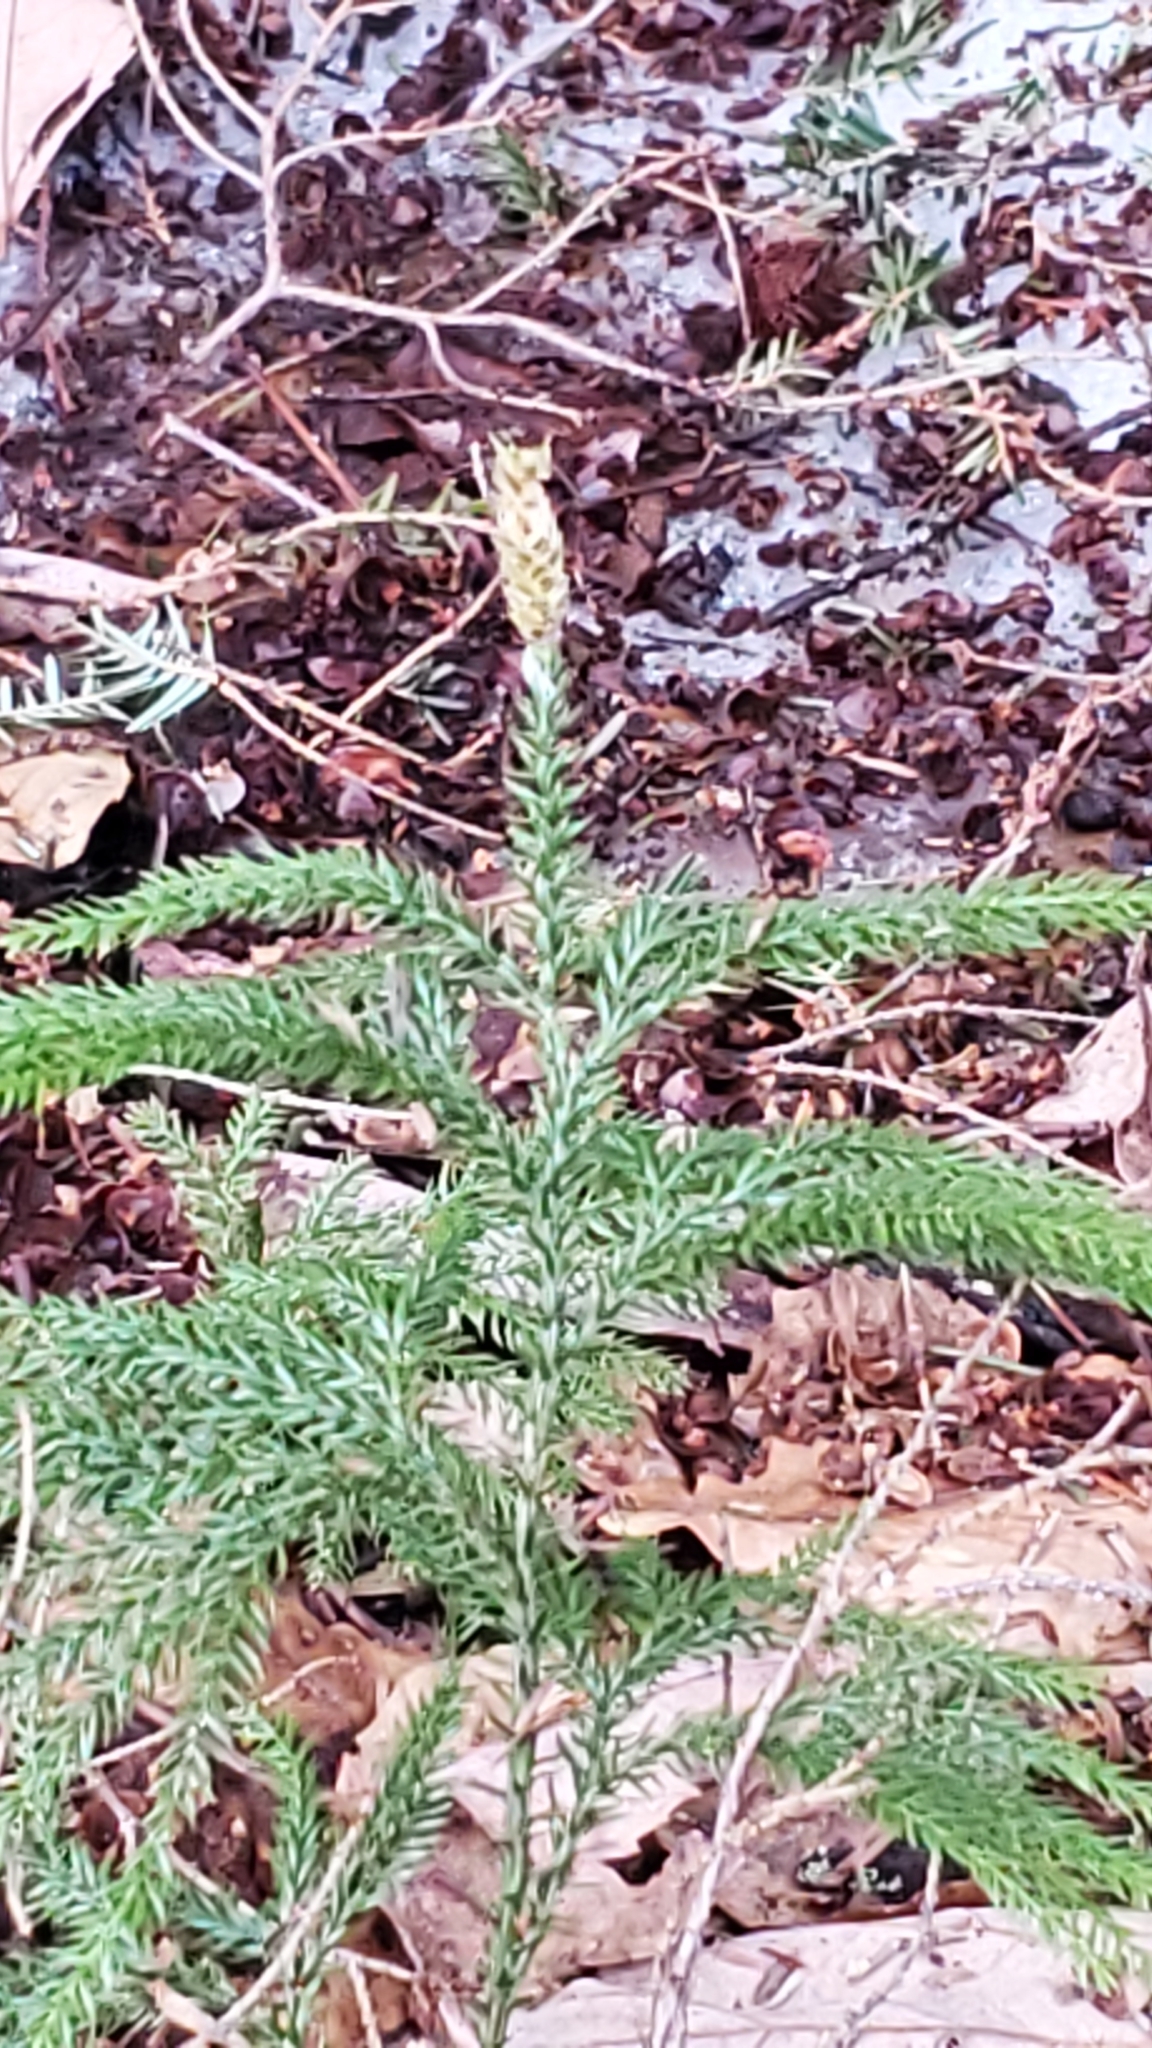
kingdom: Plantae
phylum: Tracheophyta
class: Lycopodiopsida
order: Lycopodiales
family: Lycopodiaceae
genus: Dendrolycopodium
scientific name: Dendrolycopodium dendroideum
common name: Northern tree-clubmoss
